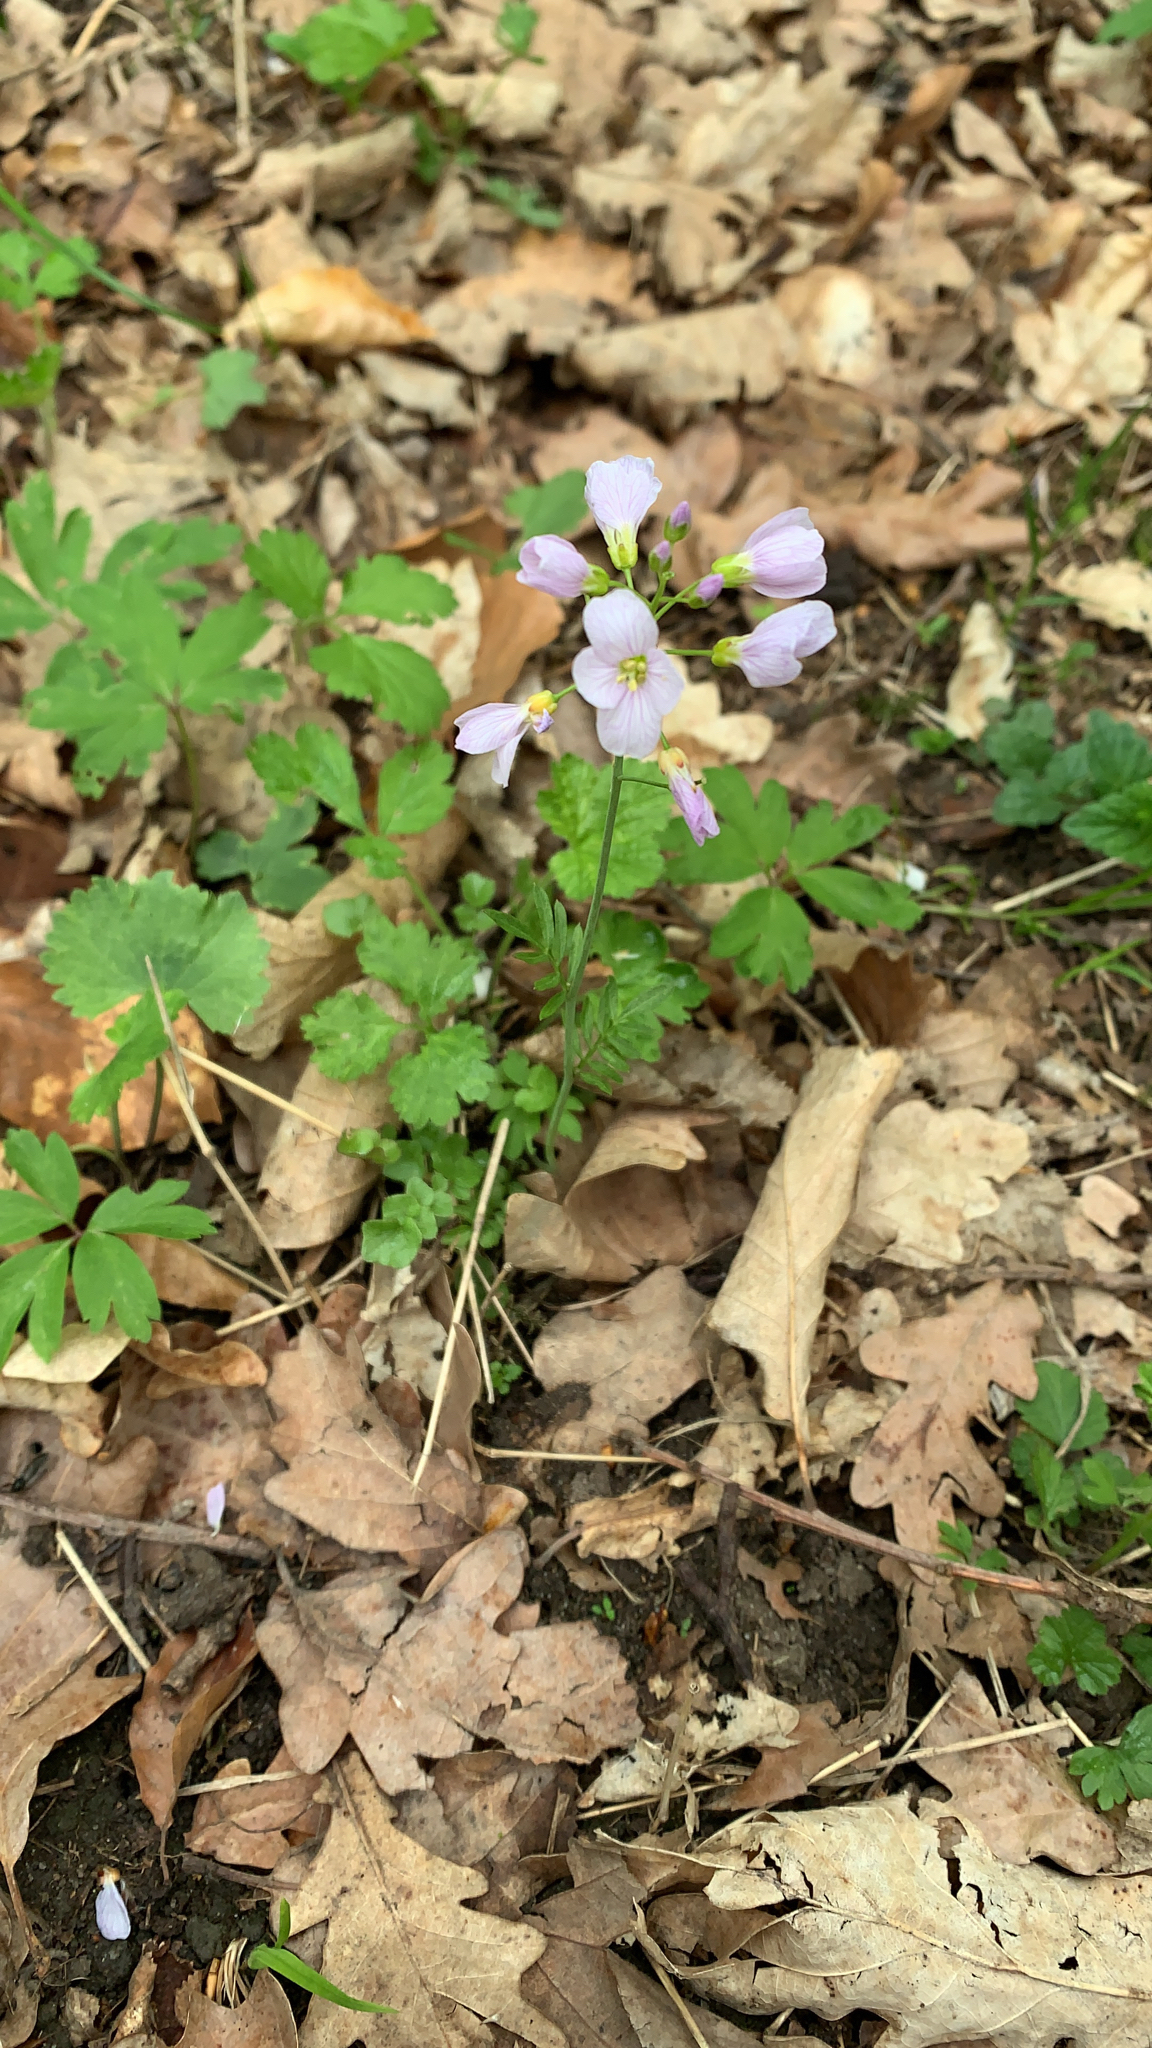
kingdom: Plantae
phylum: Tracheophyta
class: Magnoliopsida
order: Brassicales
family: Brassicaceae
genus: Cardamine
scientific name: Cardamine pratensis
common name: Cuckoo flower
